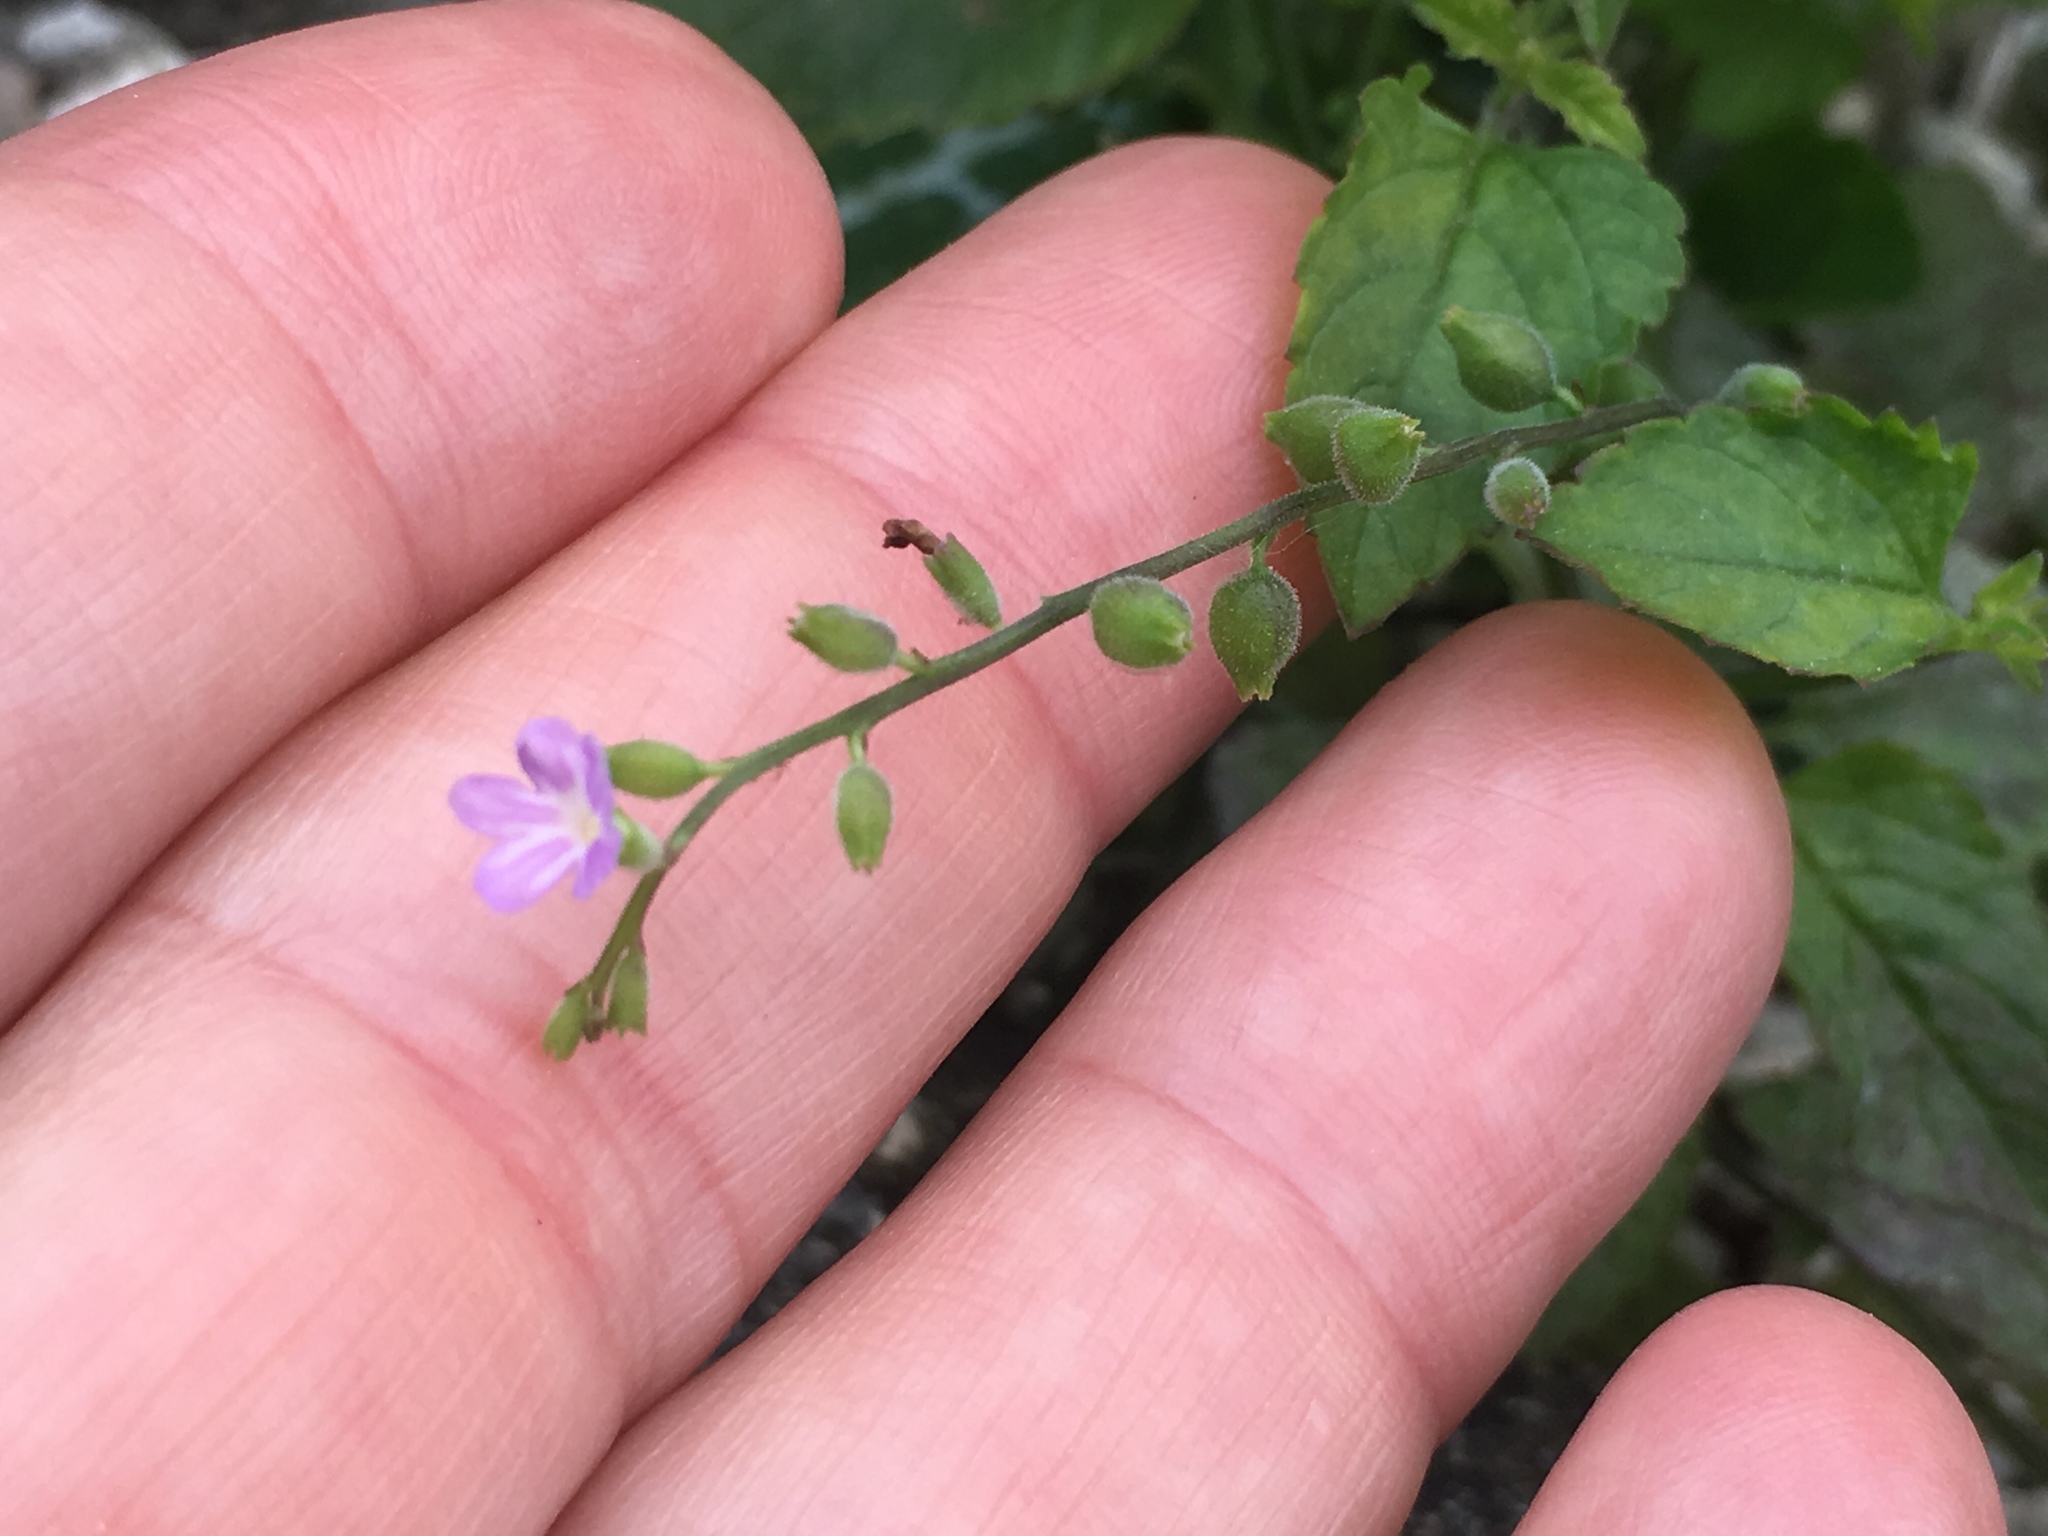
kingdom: Plantae
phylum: Tracheophyta
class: Magnoliopsida
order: Lamiales
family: Verbenaceae
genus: Priva
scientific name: Priva lappulacea
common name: Fasten-'pon-coat
